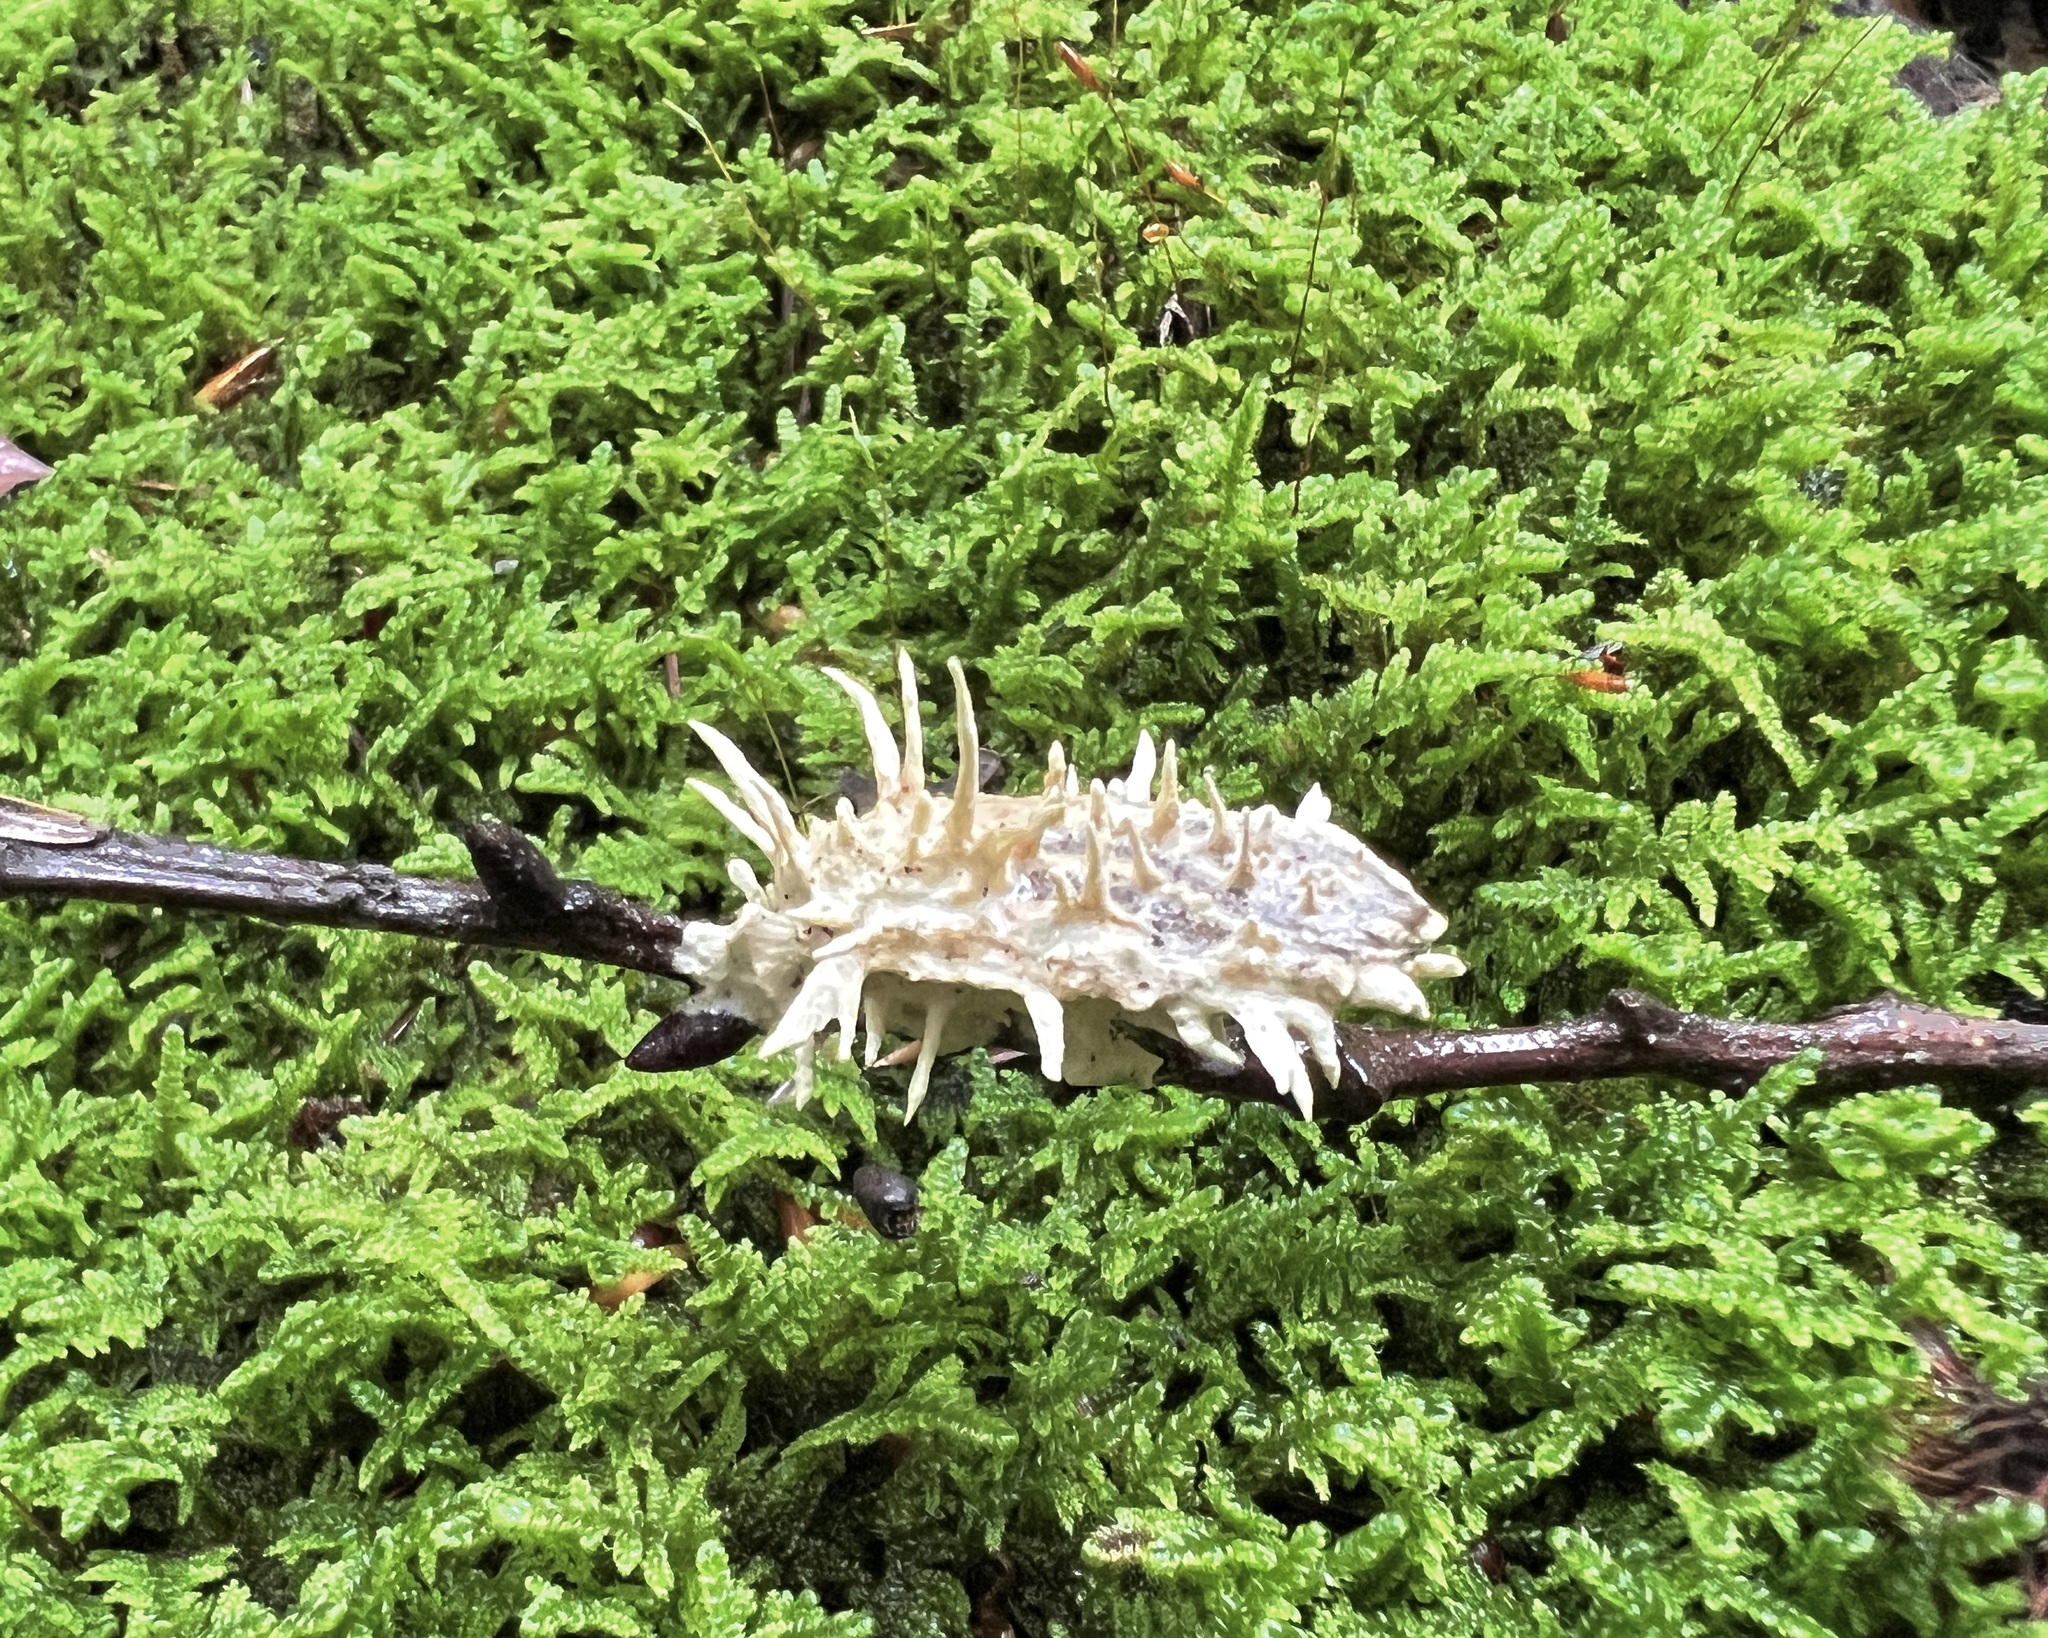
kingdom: Fungi
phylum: Ascomycota
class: Sordariomycetes
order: Hypocreales
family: Cordycipitaceae
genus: Akanthomyces
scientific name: Akanthomyces aculeatus
